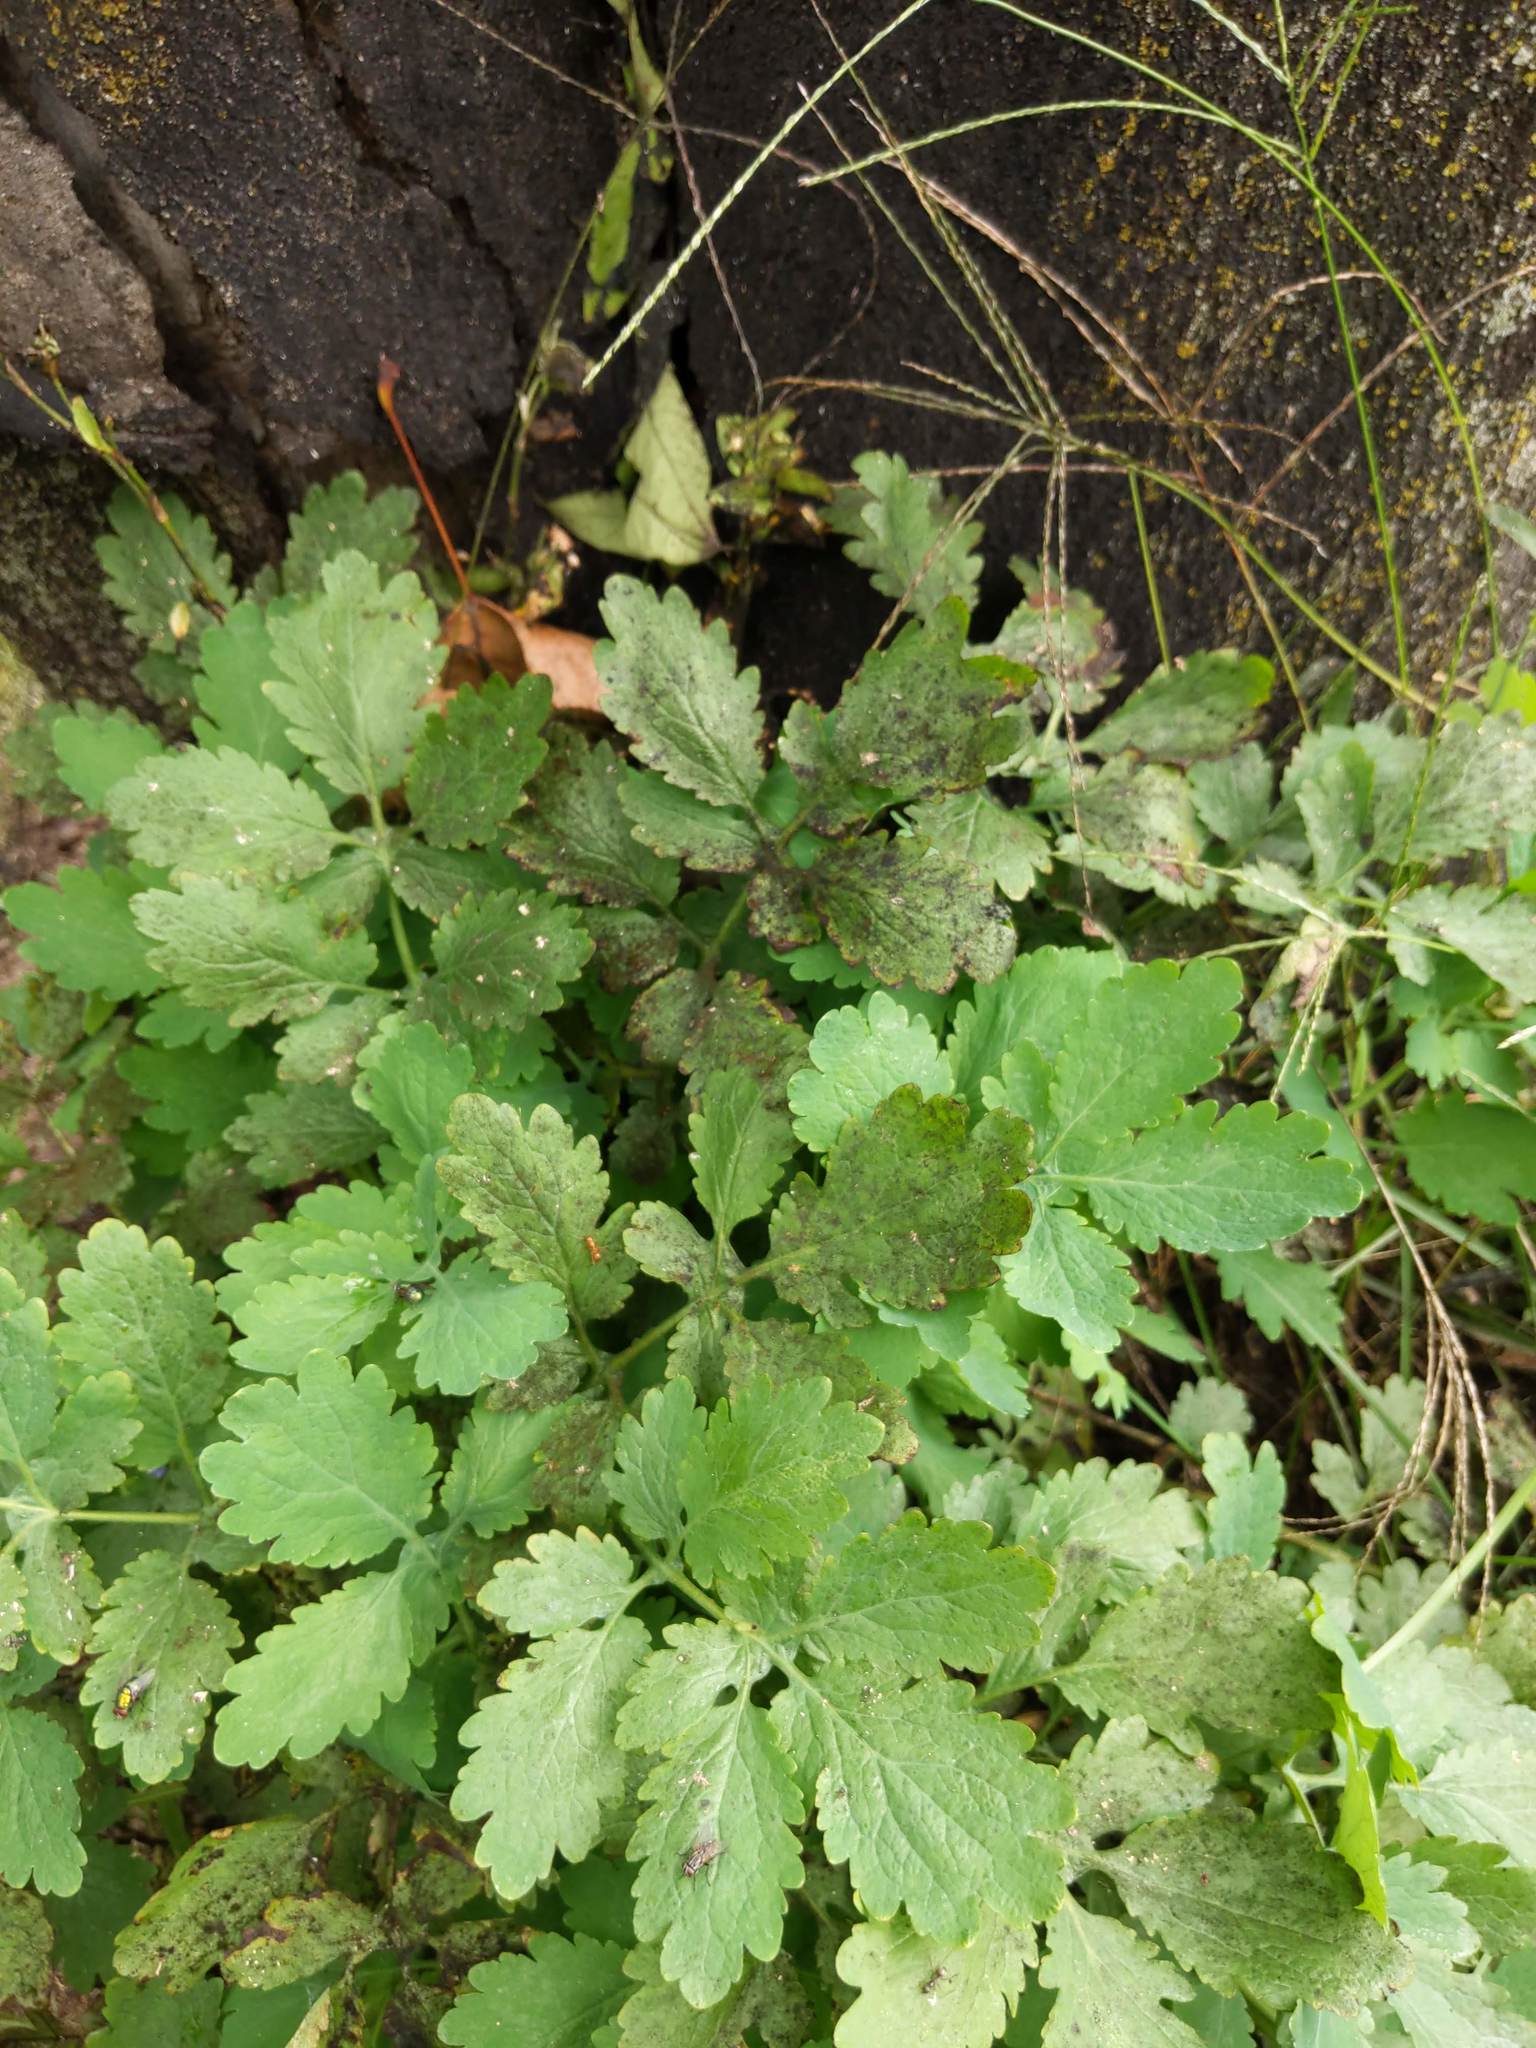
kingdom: Plantae
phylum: Tracheophyta
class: Magnoliopsida
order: Ranunculales
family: Papaveraceae
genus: Chelidonium
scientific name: Chelidonium majus
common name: Greater celandine
